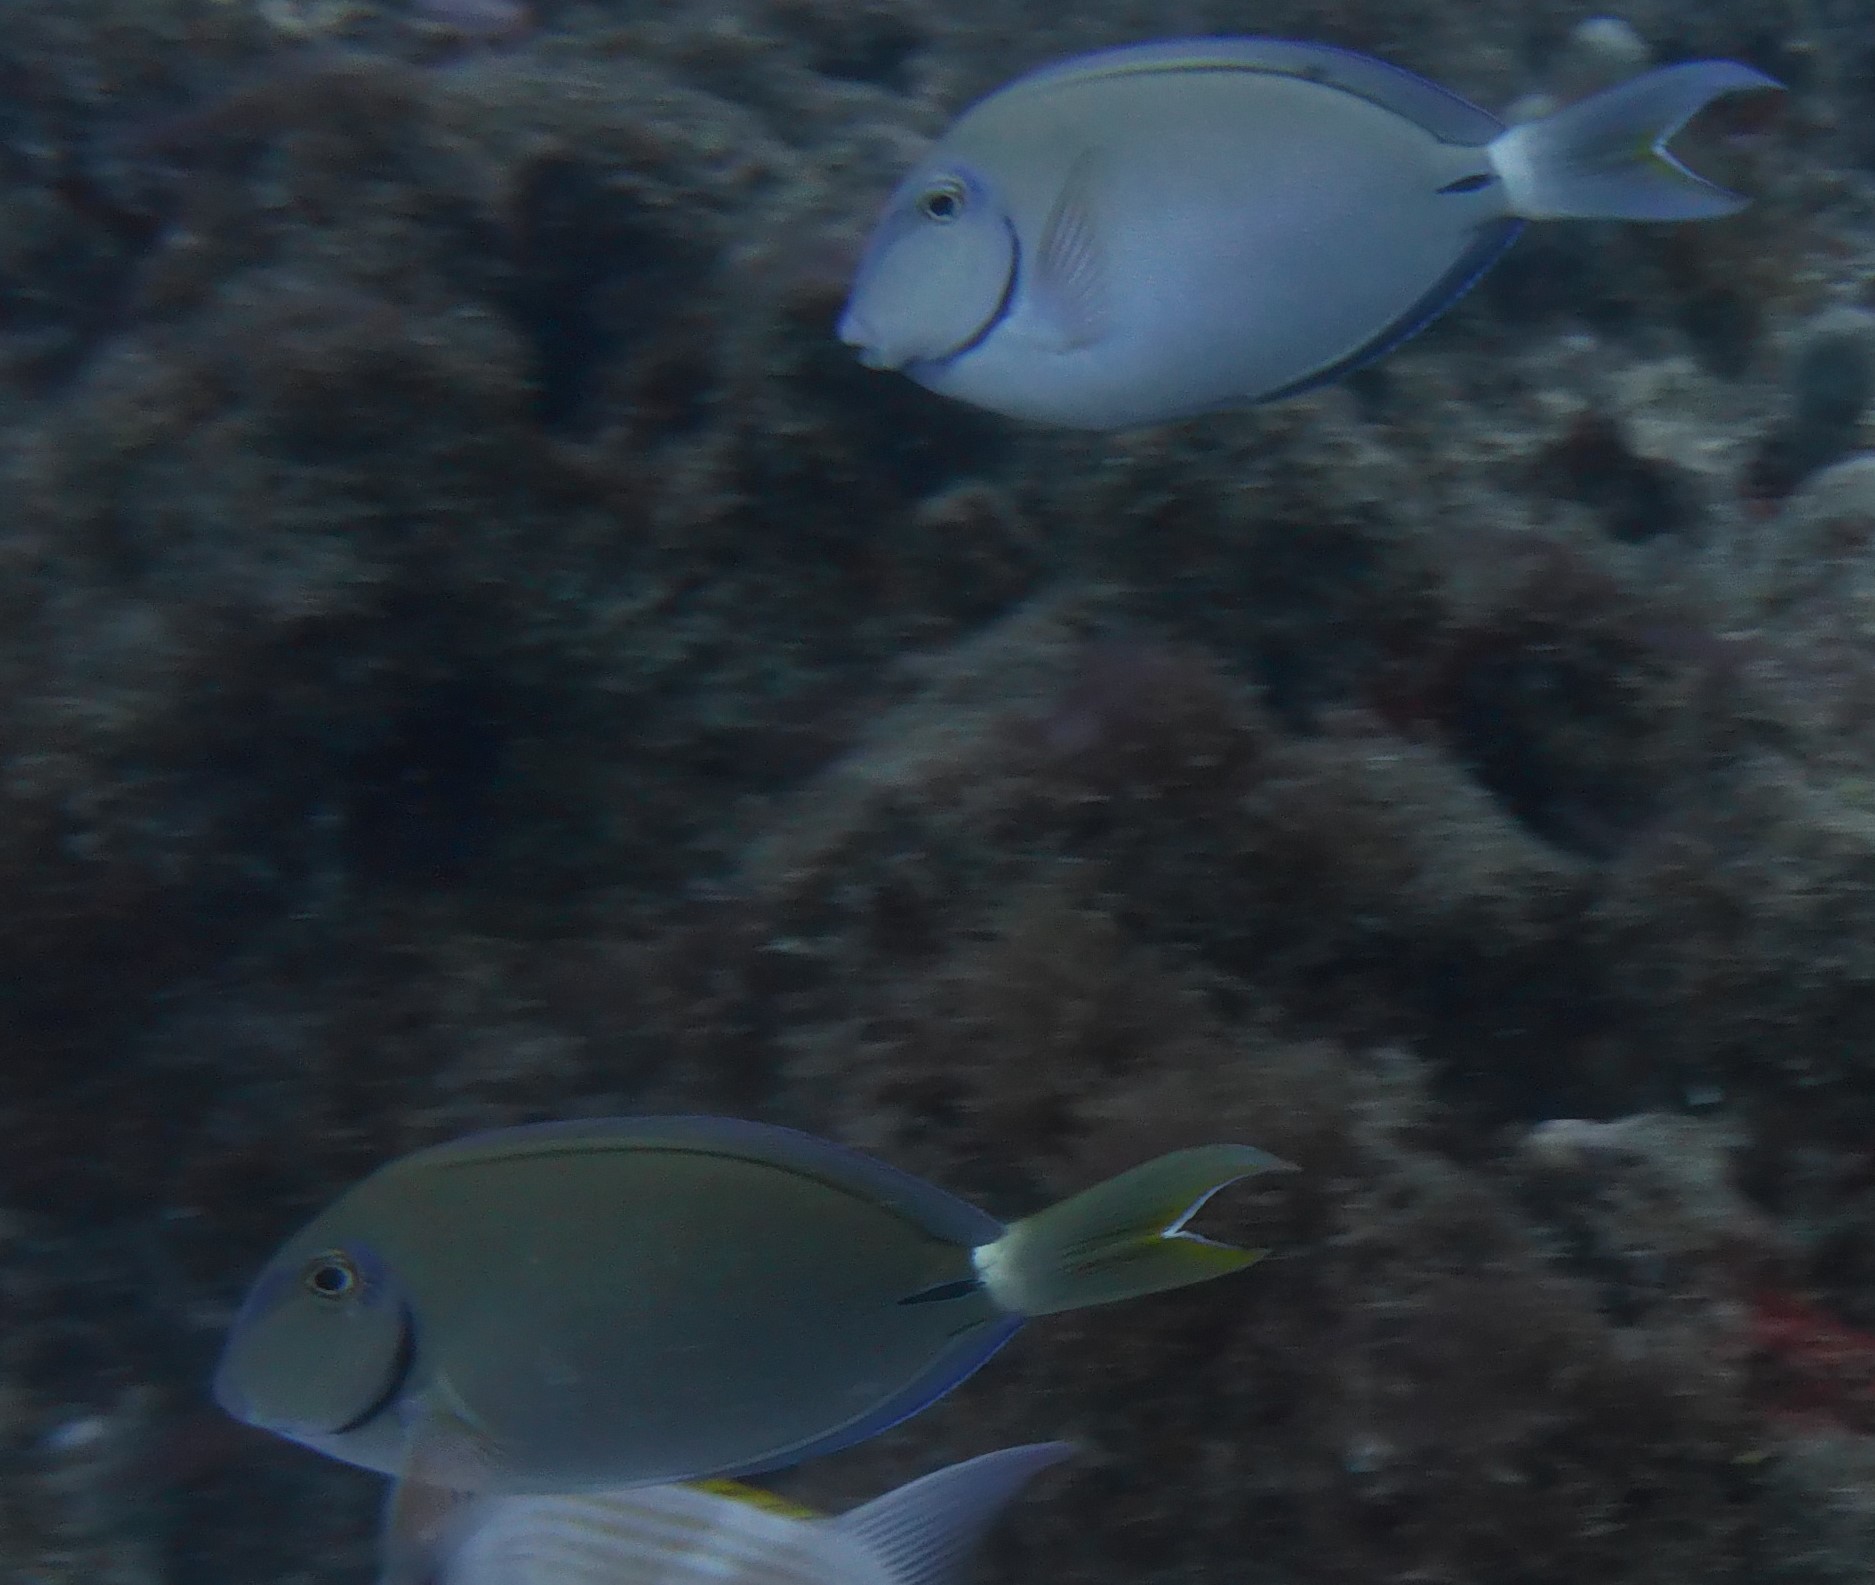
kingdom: Animalia
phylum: Chordata
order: Perciformes
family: Acanthuridae
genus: Acanthurus
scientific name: Acanthurus bahianus
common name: Ocean surgeon
